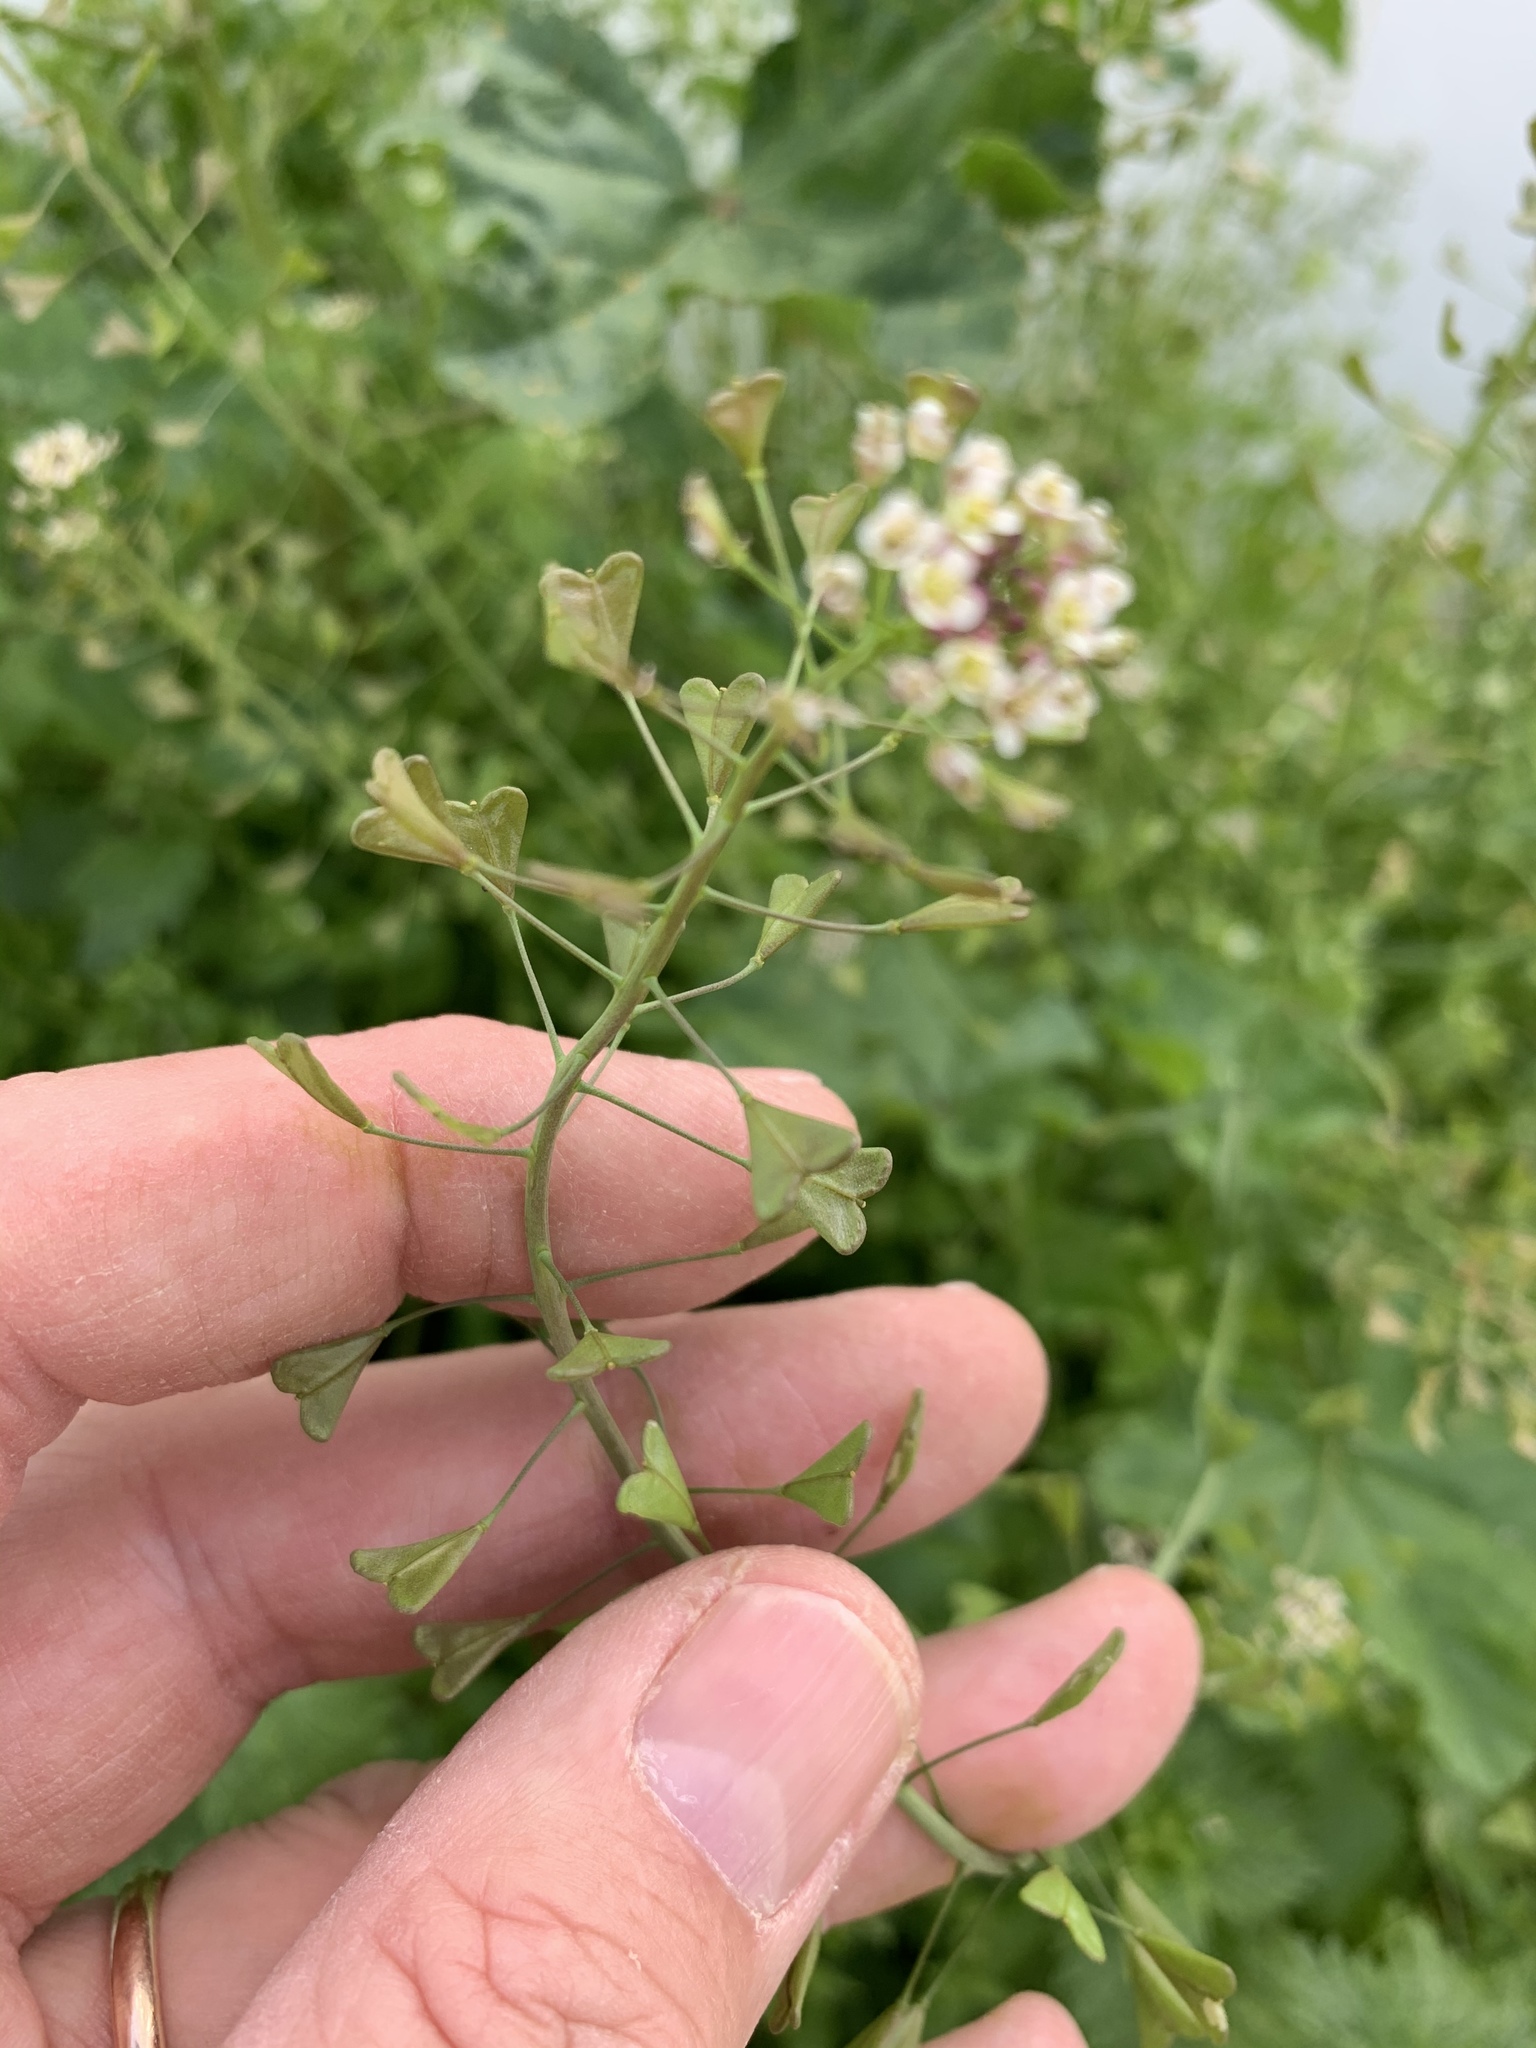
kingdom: Plantae
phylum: Tracheophyta
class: Magnoliopsida
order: Brassicales
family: Brassicaceae
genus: Capsella
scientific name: Capsella bursa-pastoris
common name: Shepherd's purse
